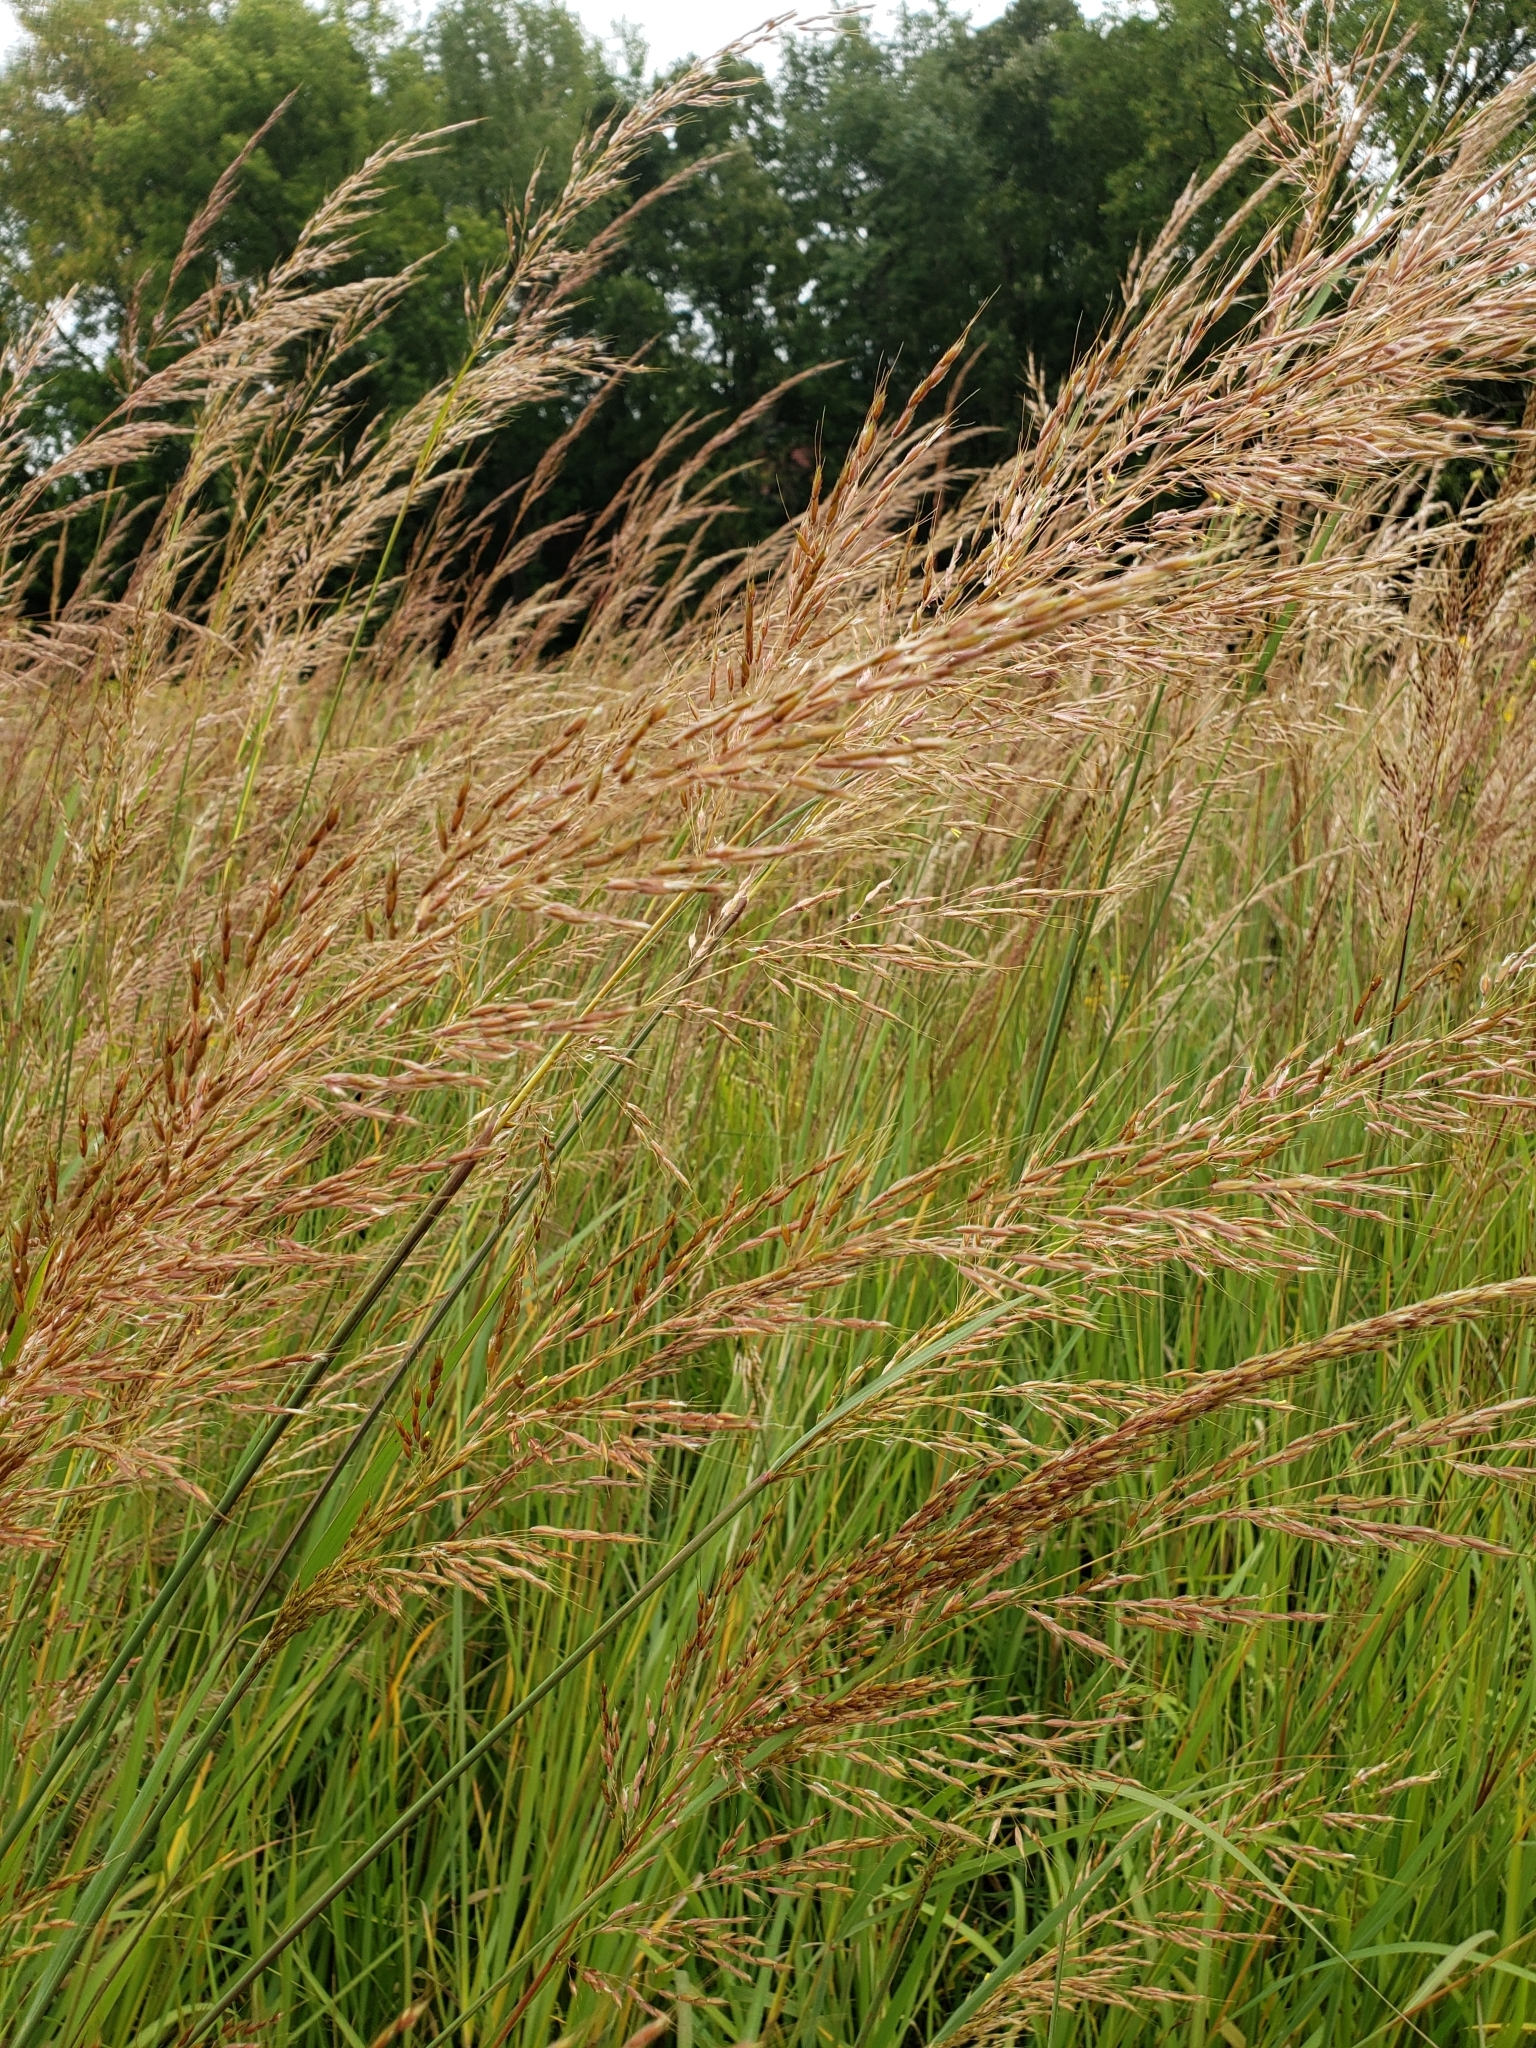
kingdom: Plantae
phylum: Tracheophyta
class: Liliopsida
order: Poales
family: Poaceae
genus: Sorghastrum
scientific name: Sorghastrum nutans
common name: Indian grass
